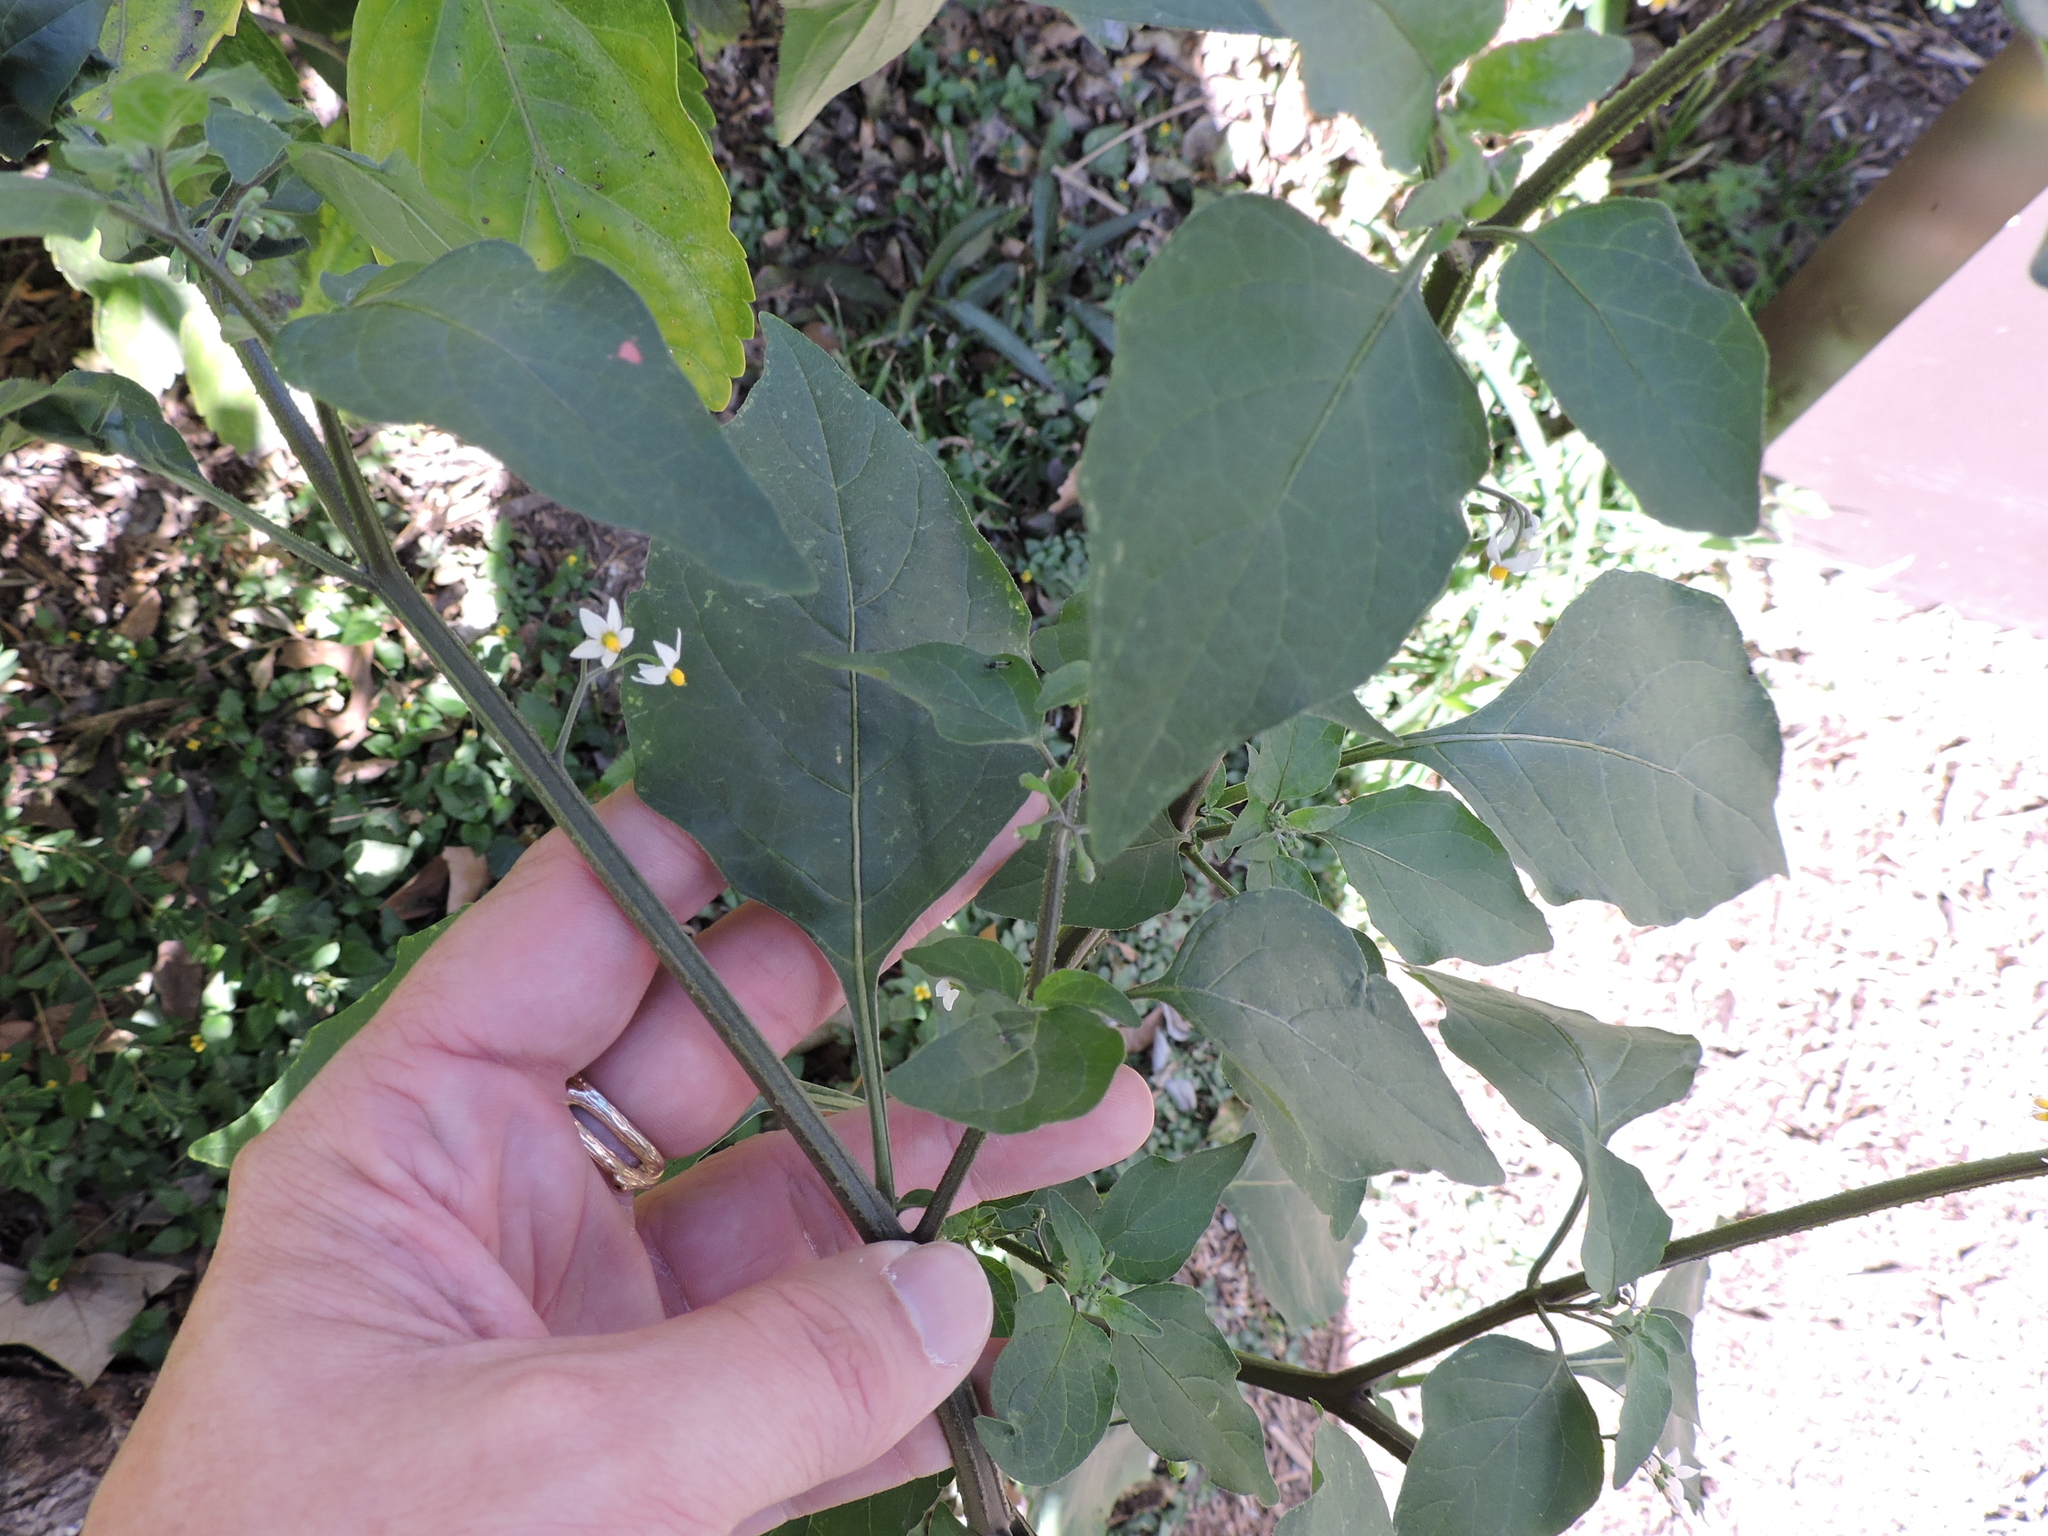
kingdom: Plantae
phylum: Tracheophyta
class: Magnoliopsida
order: Solanales
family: Solanaceae
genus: Solanum
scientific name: Solanum americanum
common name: American black nightshade
